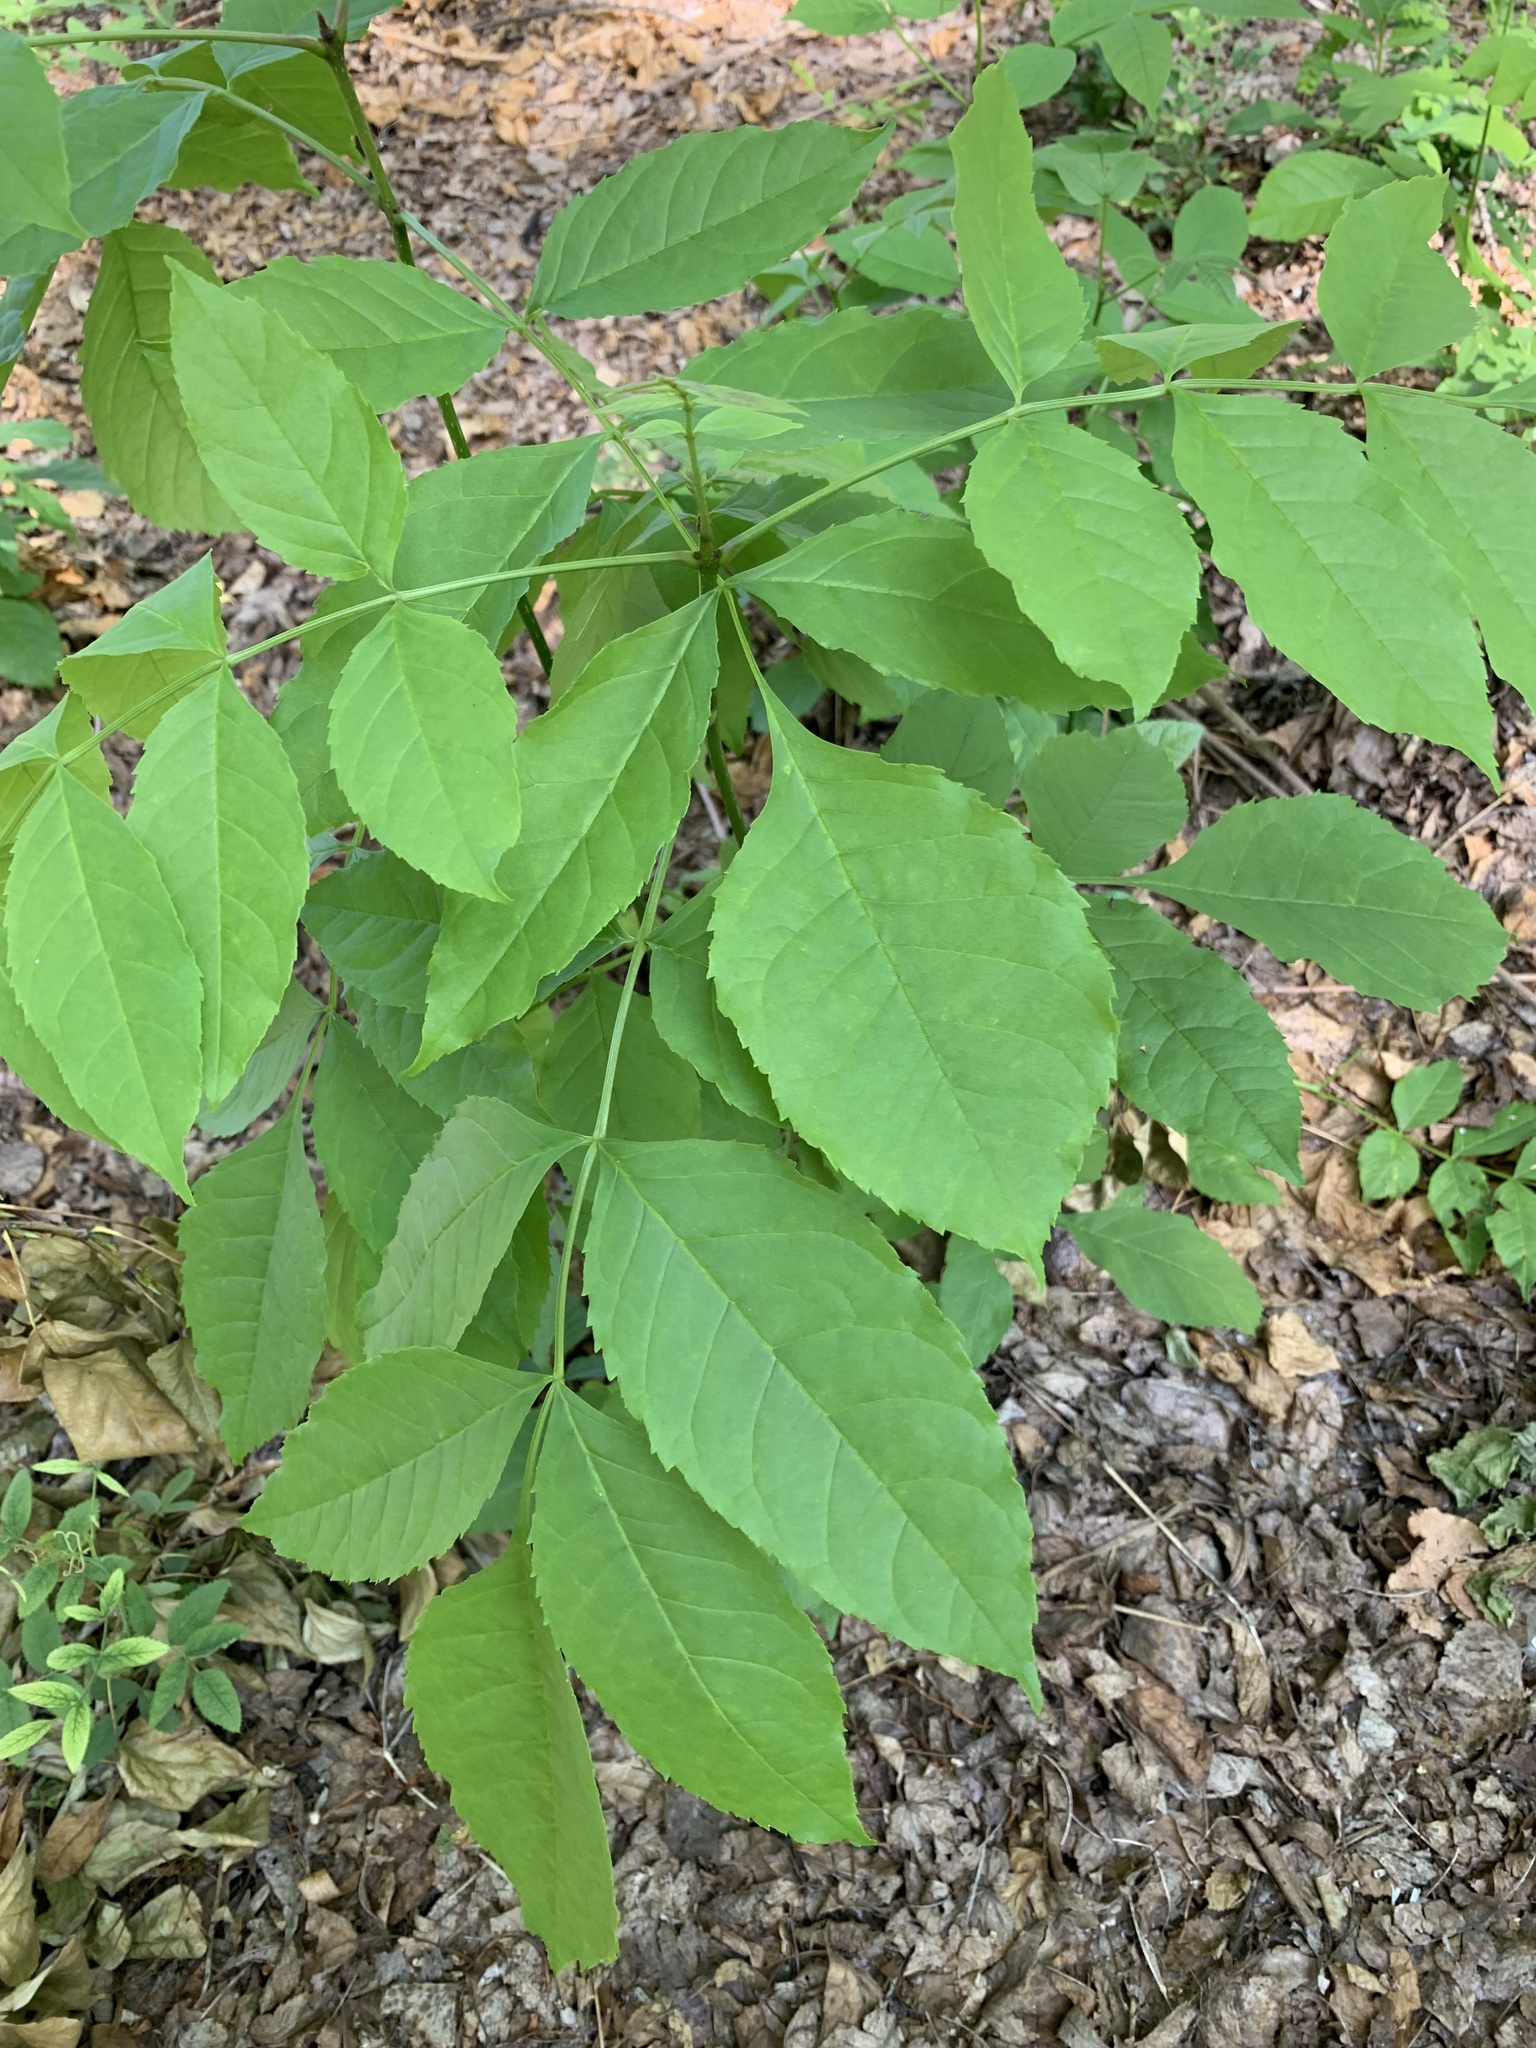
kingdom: Plantae
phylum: Tracheophyta
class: Magnoliopsida
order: Lamiales
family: Oleaceae
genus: Fraxinus
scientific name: Fraxinus pennsylvanica
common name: Green ash
